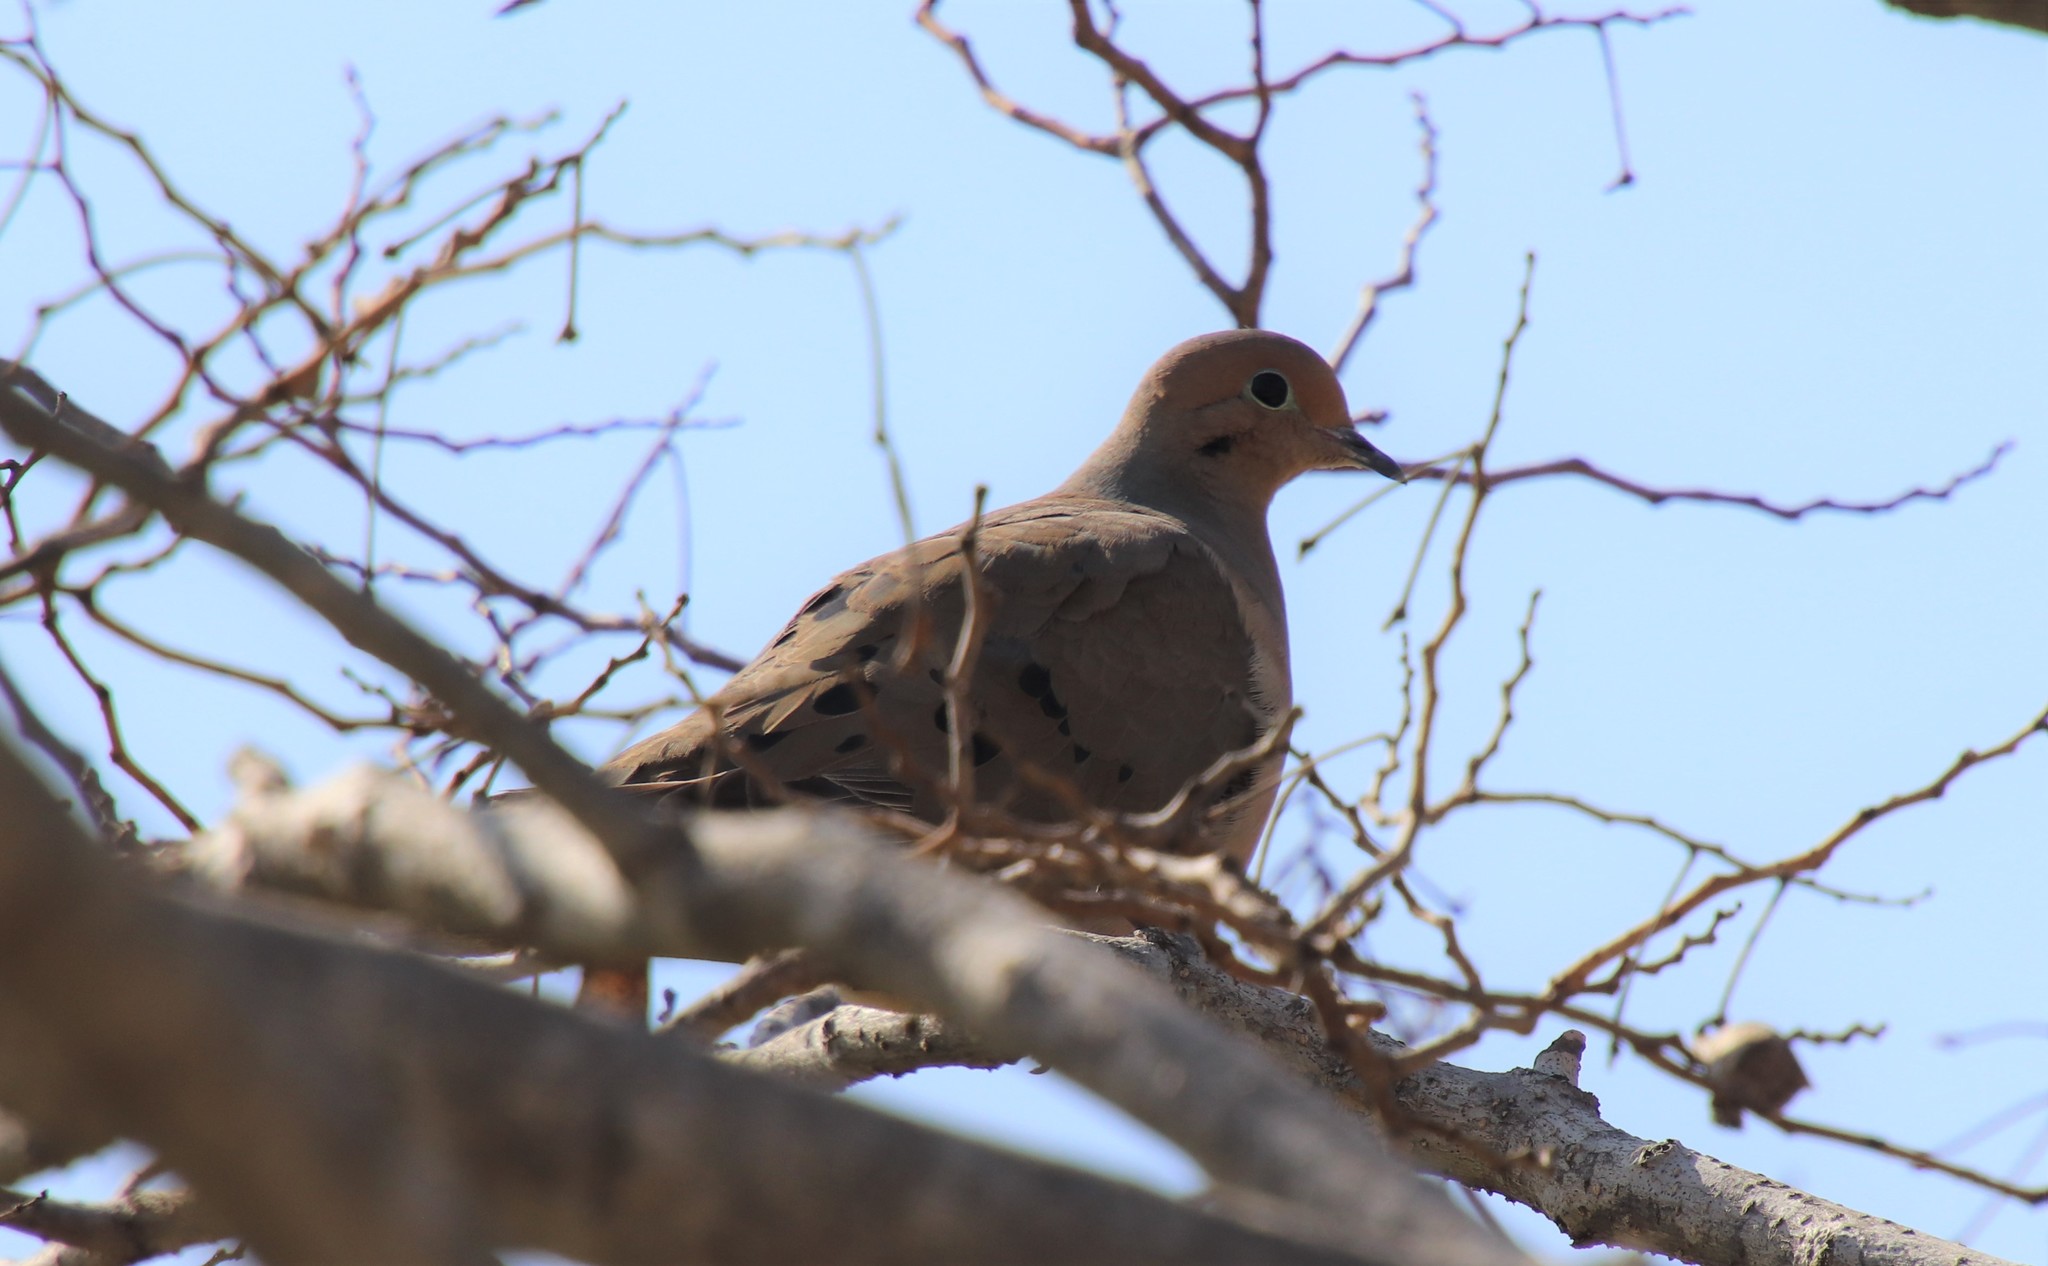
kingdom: Animalia
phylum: Chordata
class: Aves
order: Columbiformes
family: Columbidae
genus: Zenaida
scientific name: Zenaida macroura
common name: Mourning dove
